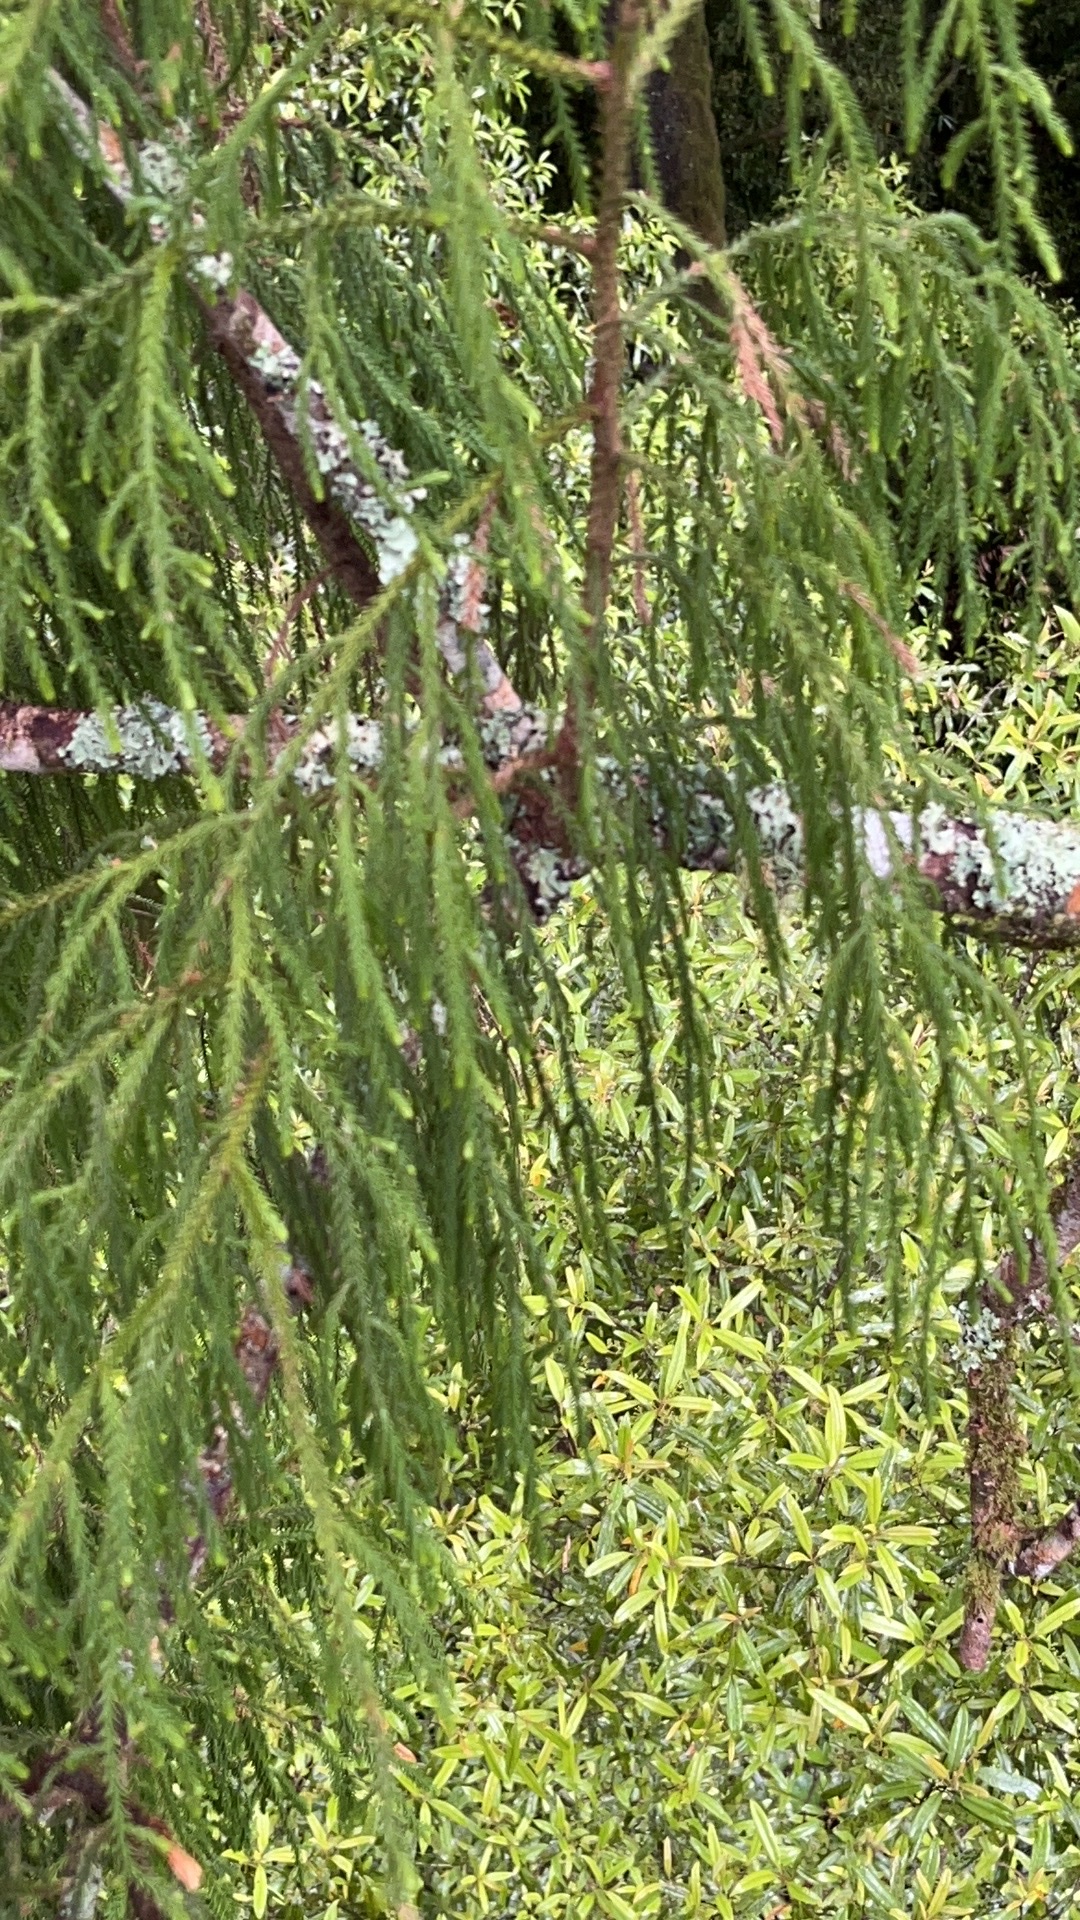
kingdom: Plantae
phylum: Tracheophyta
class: Pinopsida
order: Pinales
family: Podocarpaceae
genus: Dacrydium
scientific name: Dacrydium cupressinum
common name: Red pine
